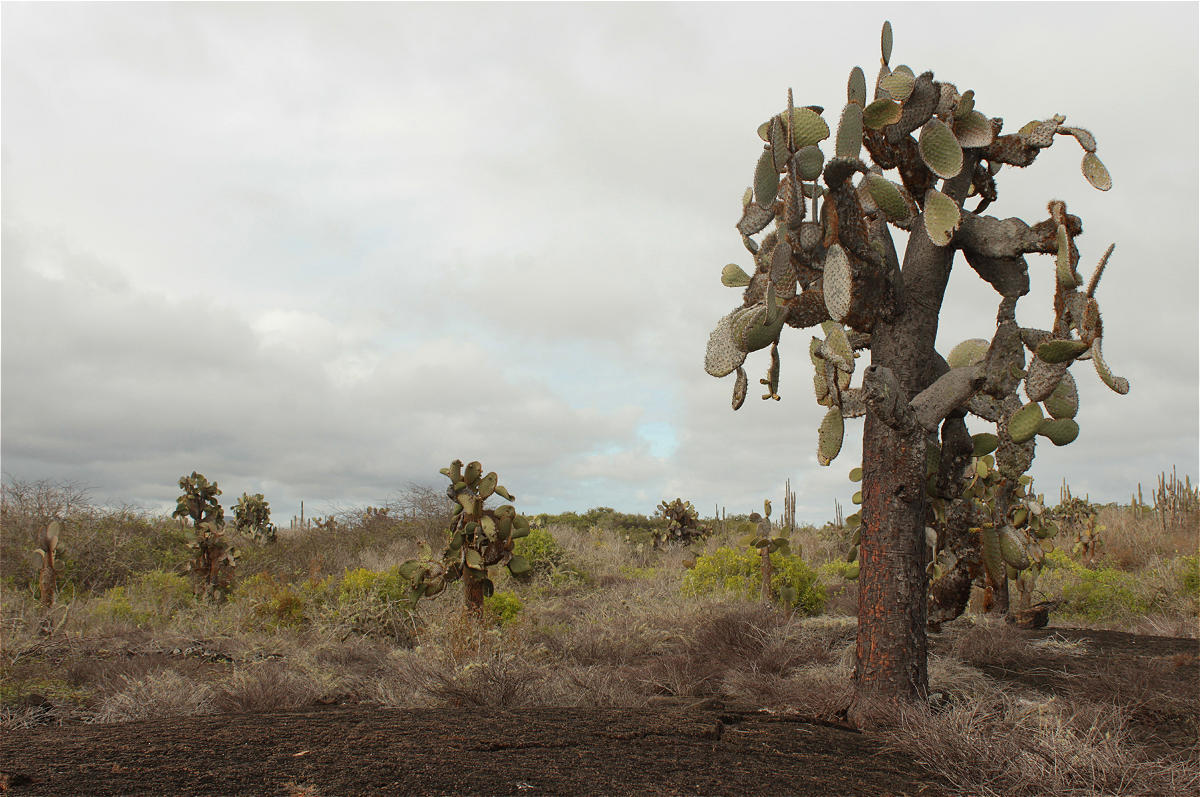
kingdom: Plantae
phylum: Tracheophyta
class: Magnoliopsida
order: Caryophyllales
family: Cactaceae
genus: Opuntia
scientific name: Opuntia galapageia
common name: Galápagos prickly pear
